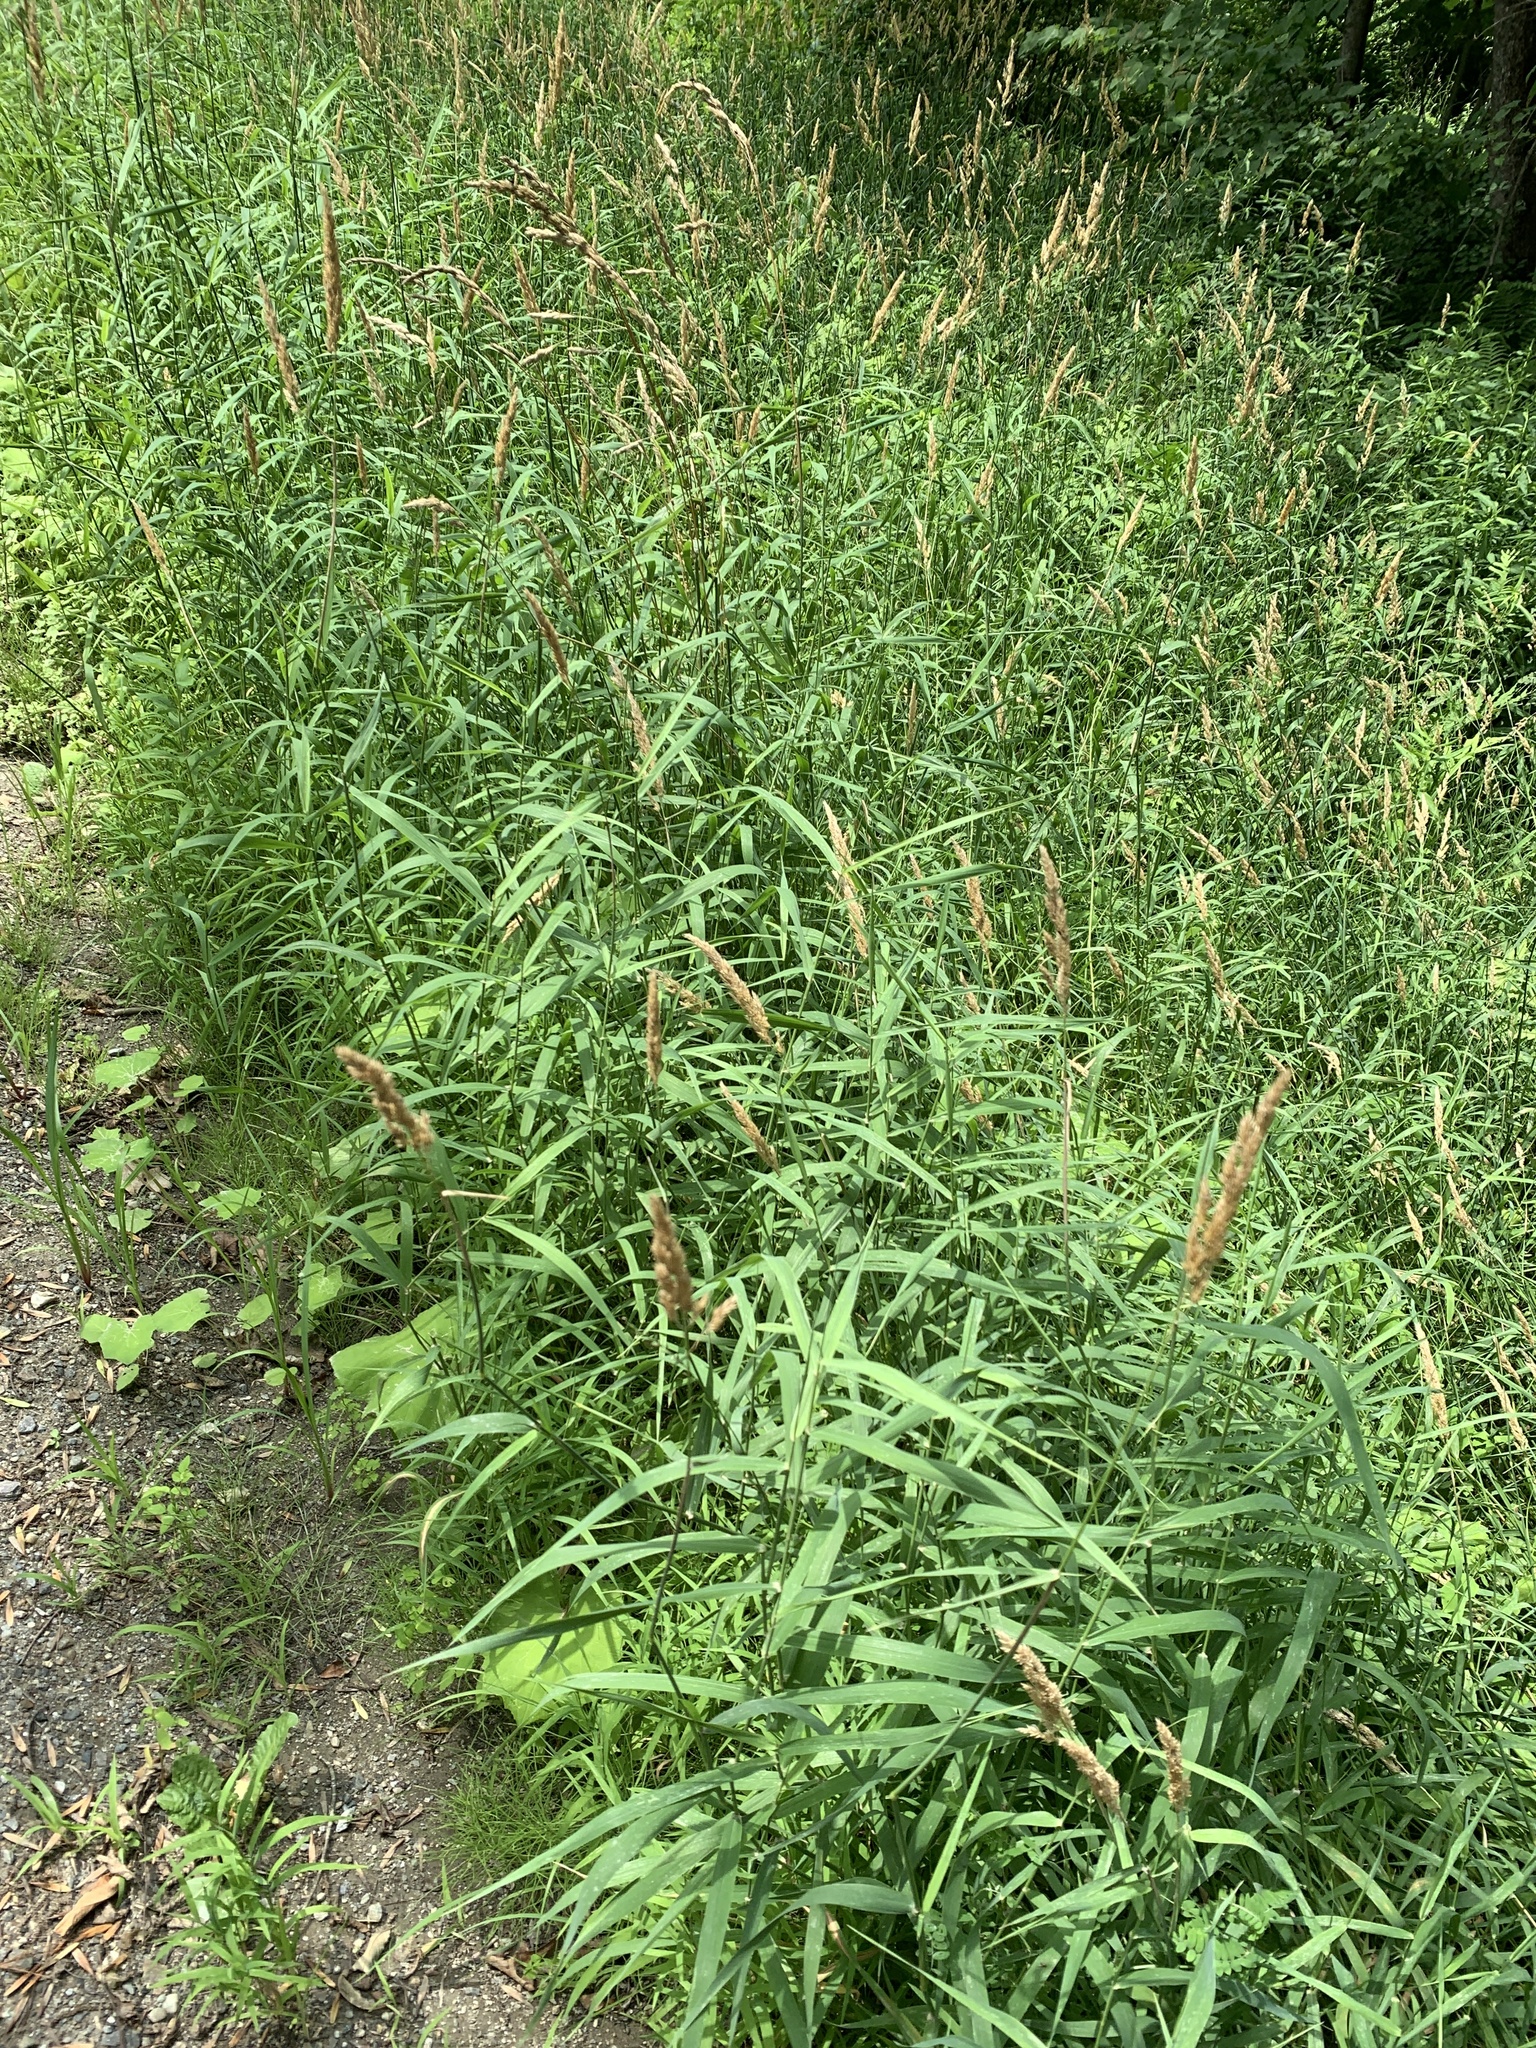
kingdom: Plantae
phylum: Tracheophyta
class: Liliopsida
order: Poales
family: Poaceae
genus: Phalaris
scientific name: Phalaris arundinacea
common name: Reed canary-grass
